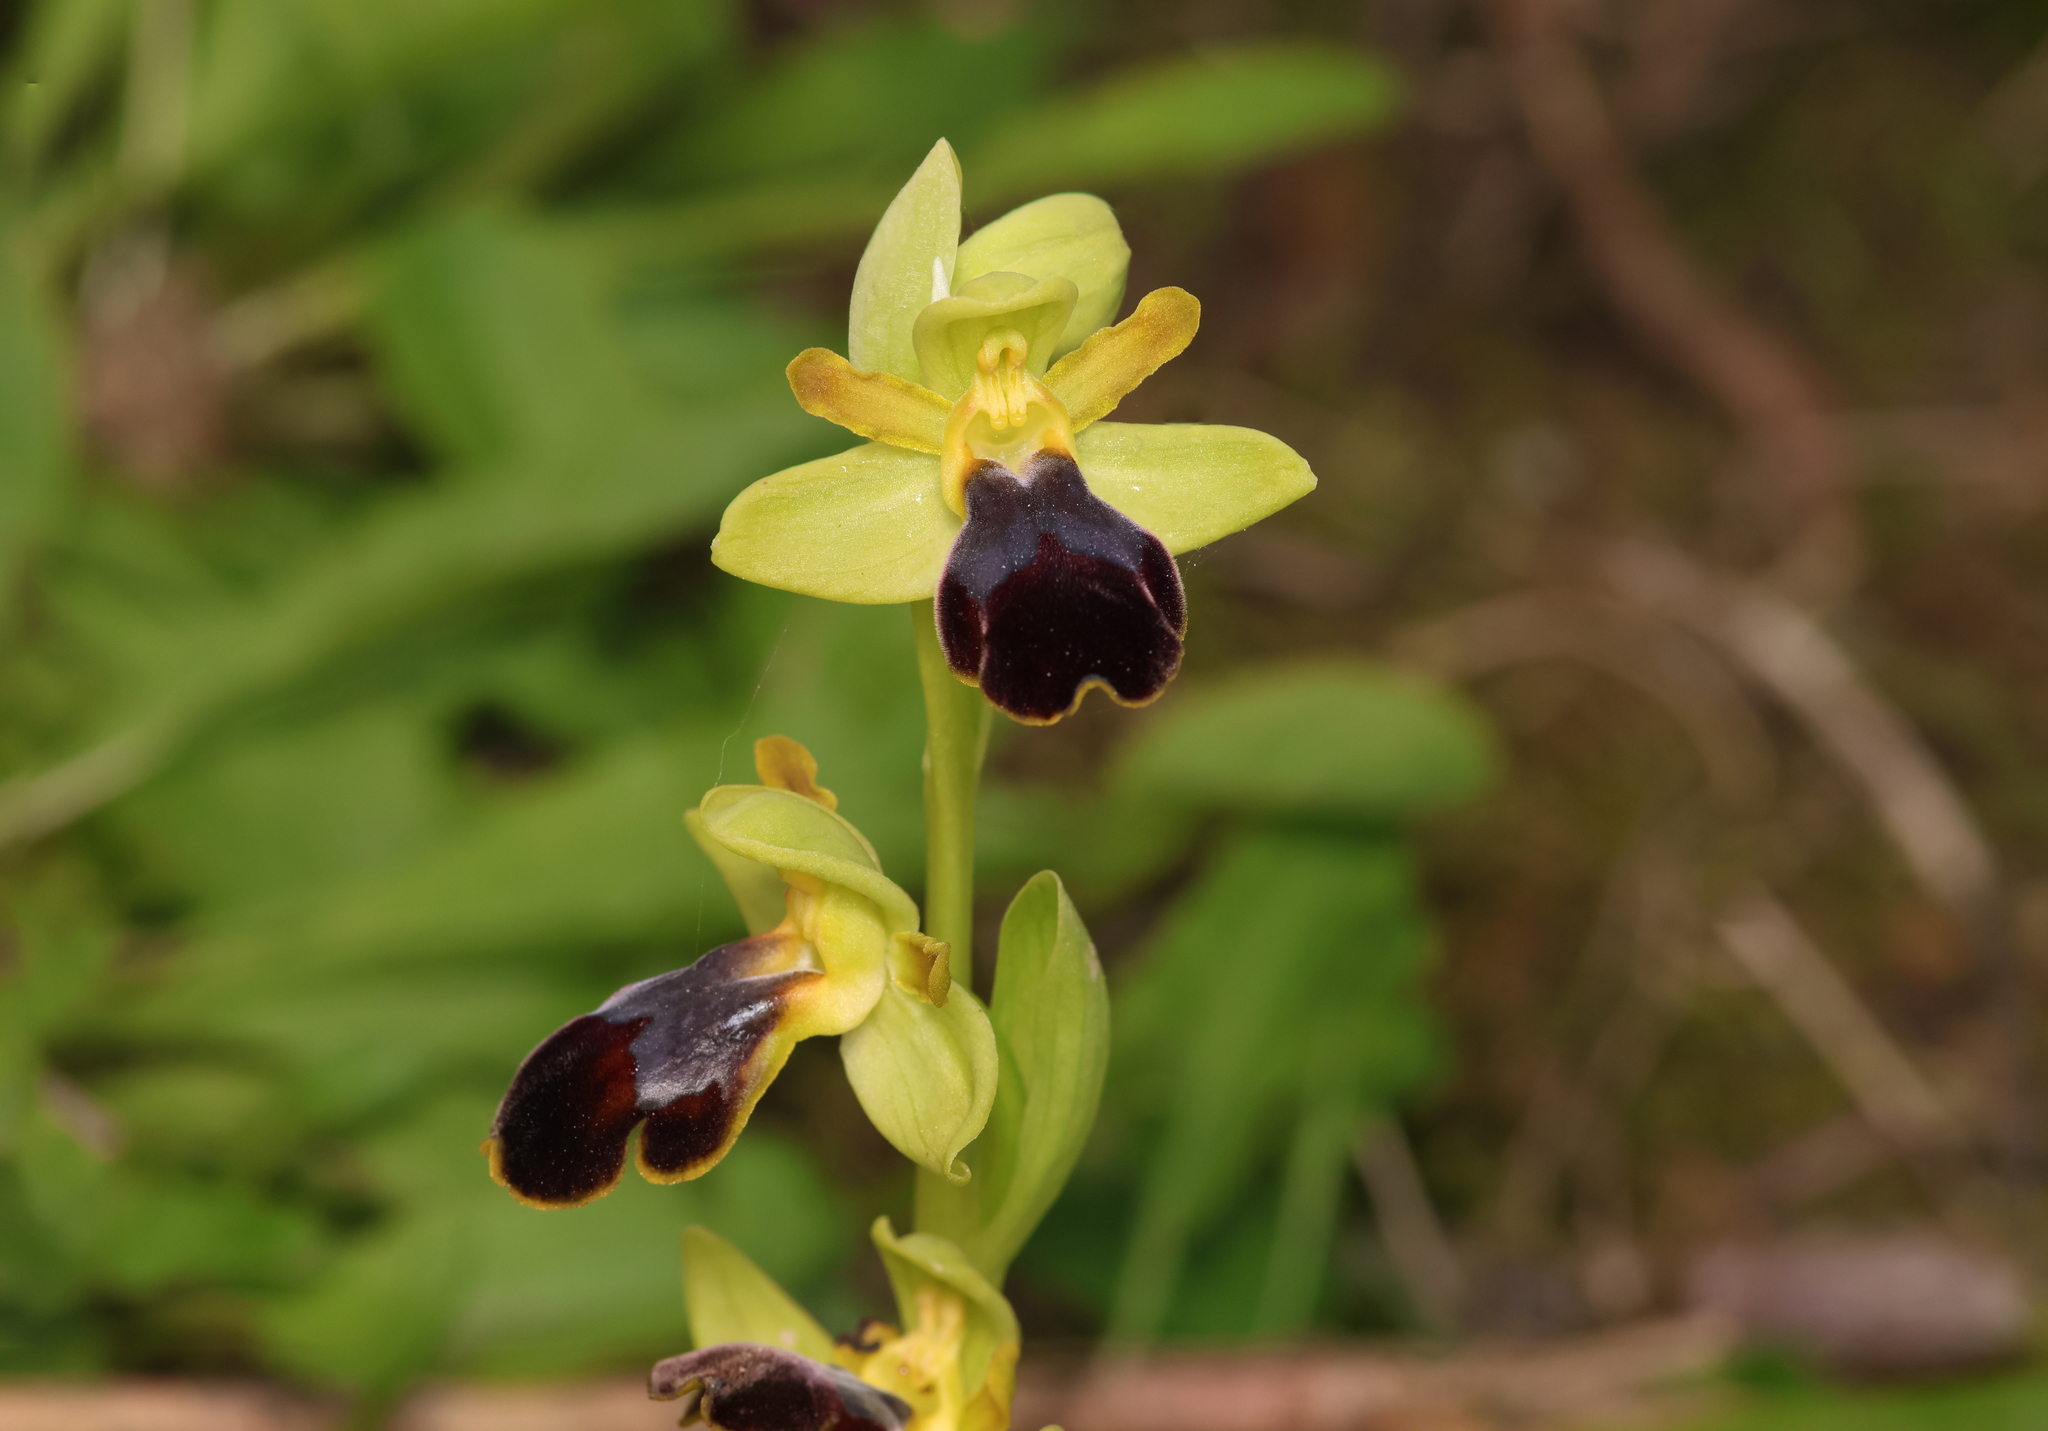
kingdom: Plantae
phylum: Tracheophyta
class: Liliopsida
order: Asparagales
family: Orchidaceae
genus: Ophrys
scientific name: Ophrys fusca
